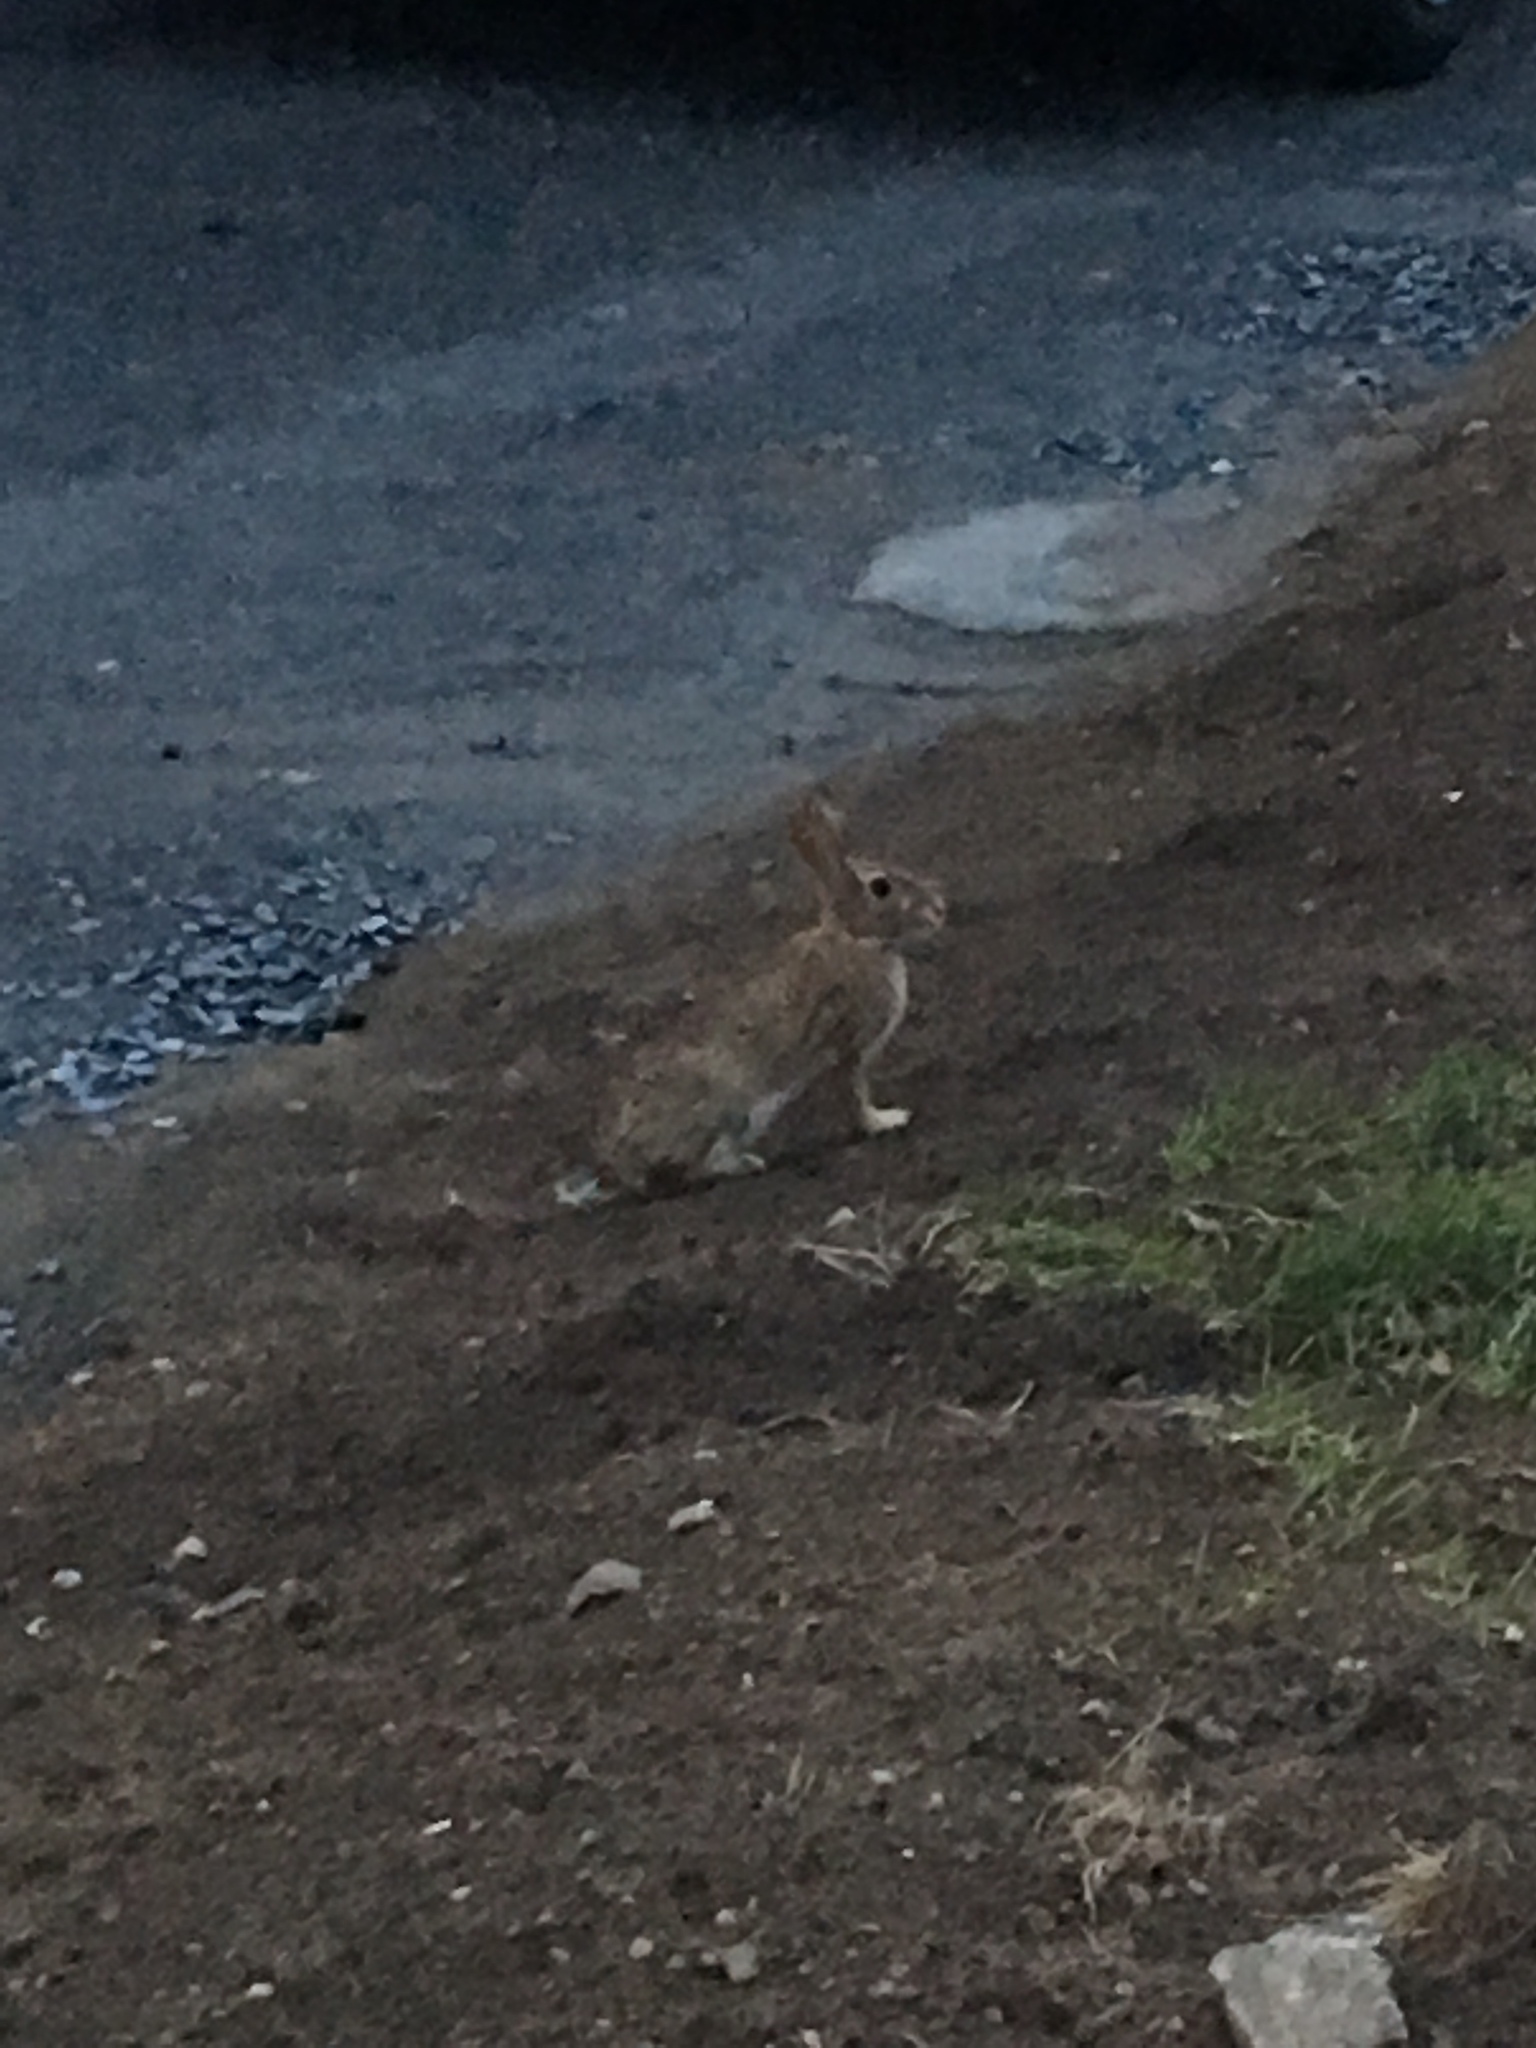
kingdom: Animalia
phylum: Chordata
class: Mammalia
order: Lagomorpha
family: Leporidae
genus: Sylvilagus
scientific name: Sylvilagus floridanus
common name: Eastern cottontail
